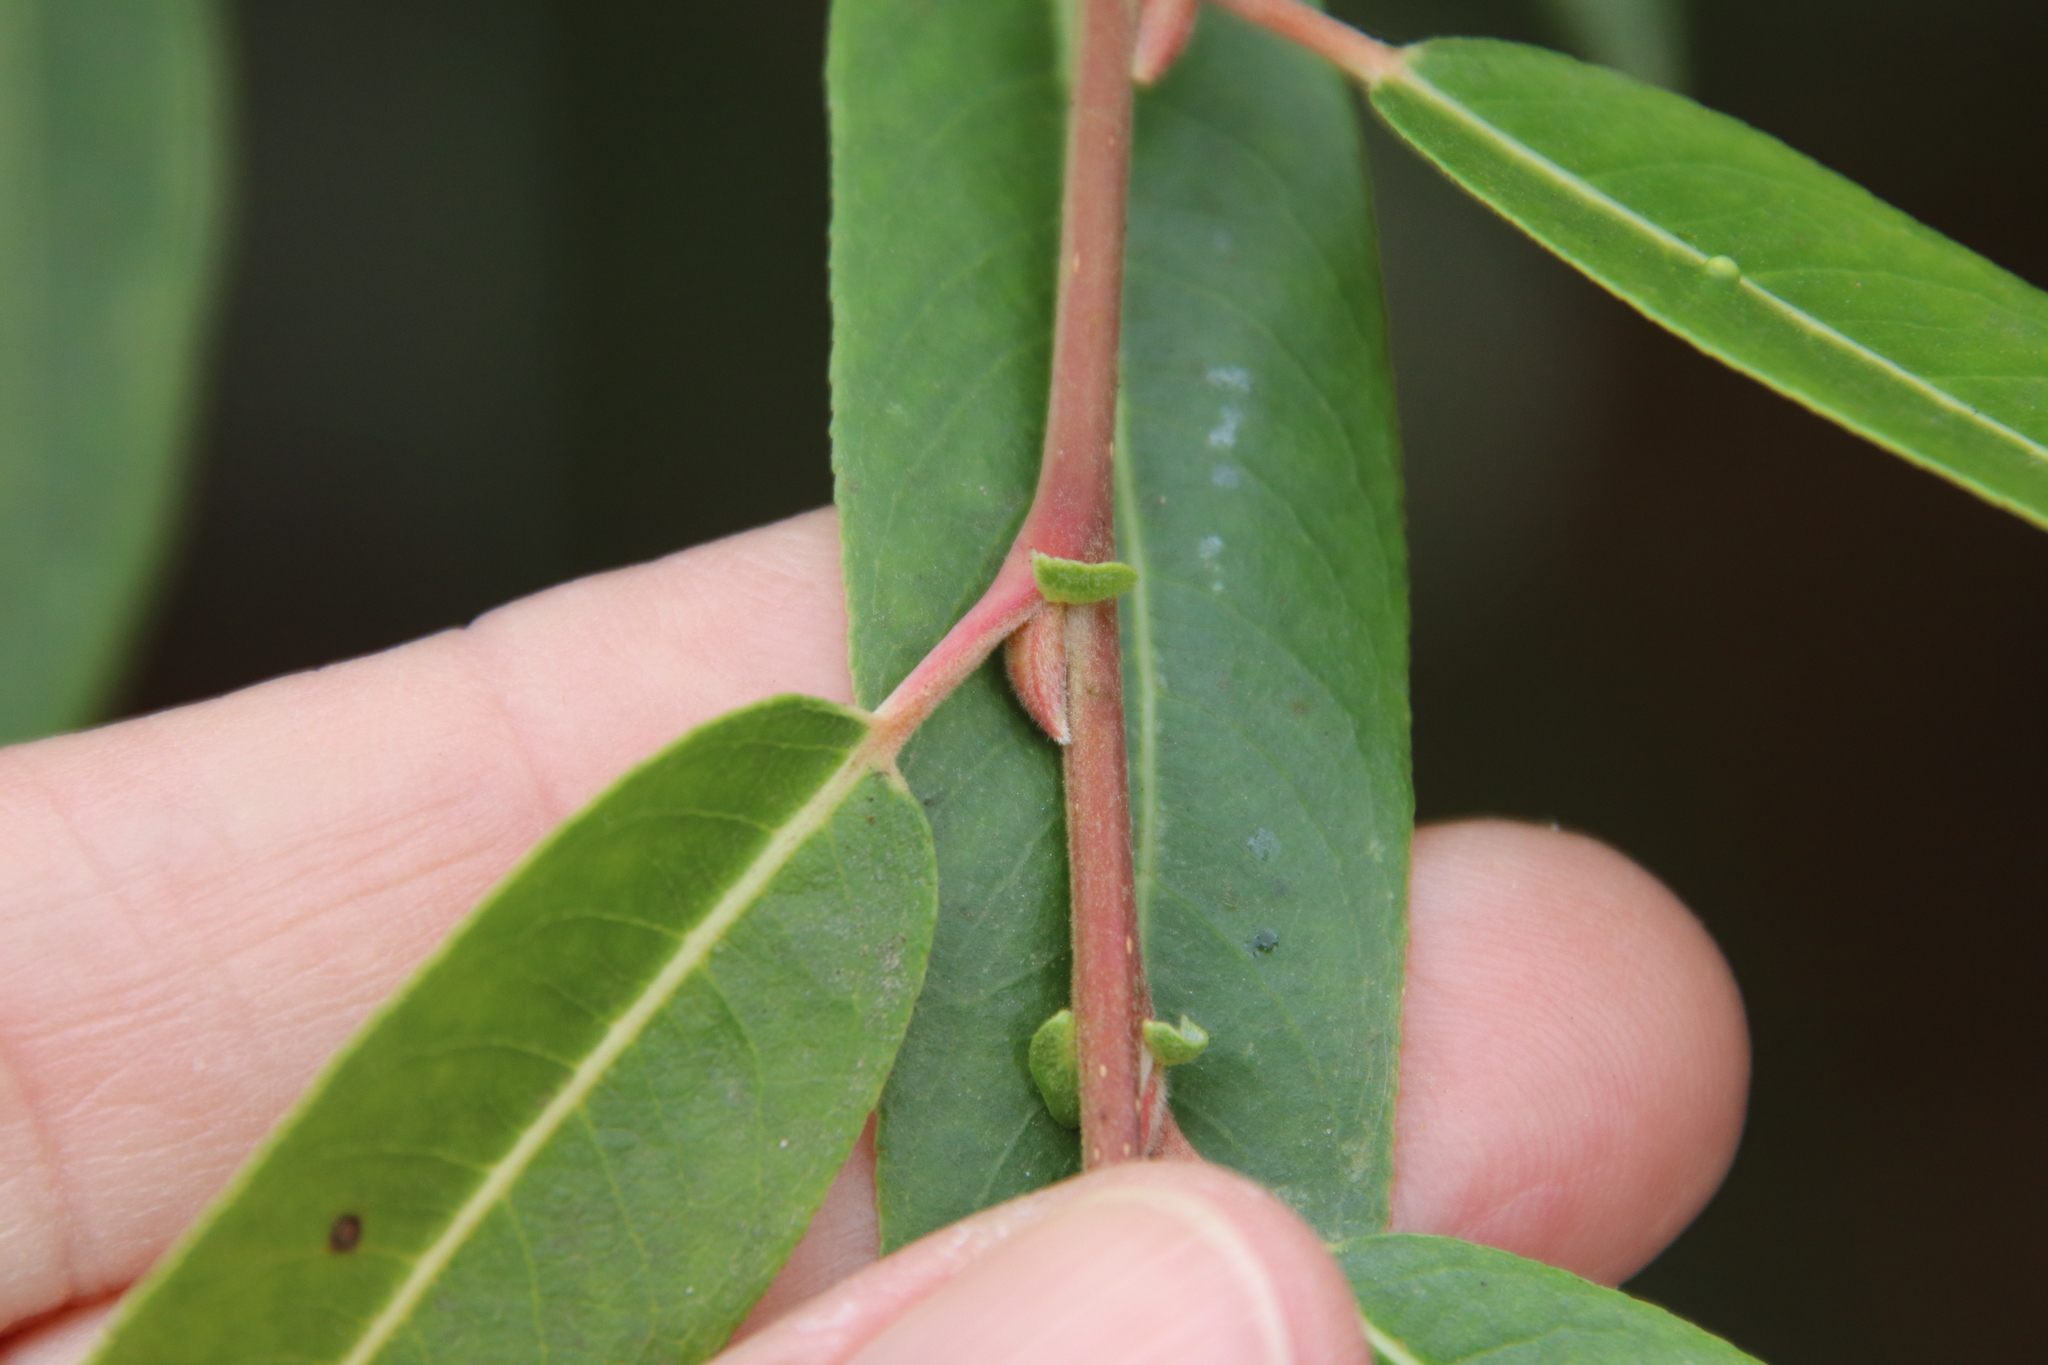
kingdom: Plantae
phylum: Tracheophyta
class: Magnoliopsida
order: Malpighiales
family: Salicaceae
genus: Salix
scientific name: Salix laevigata
